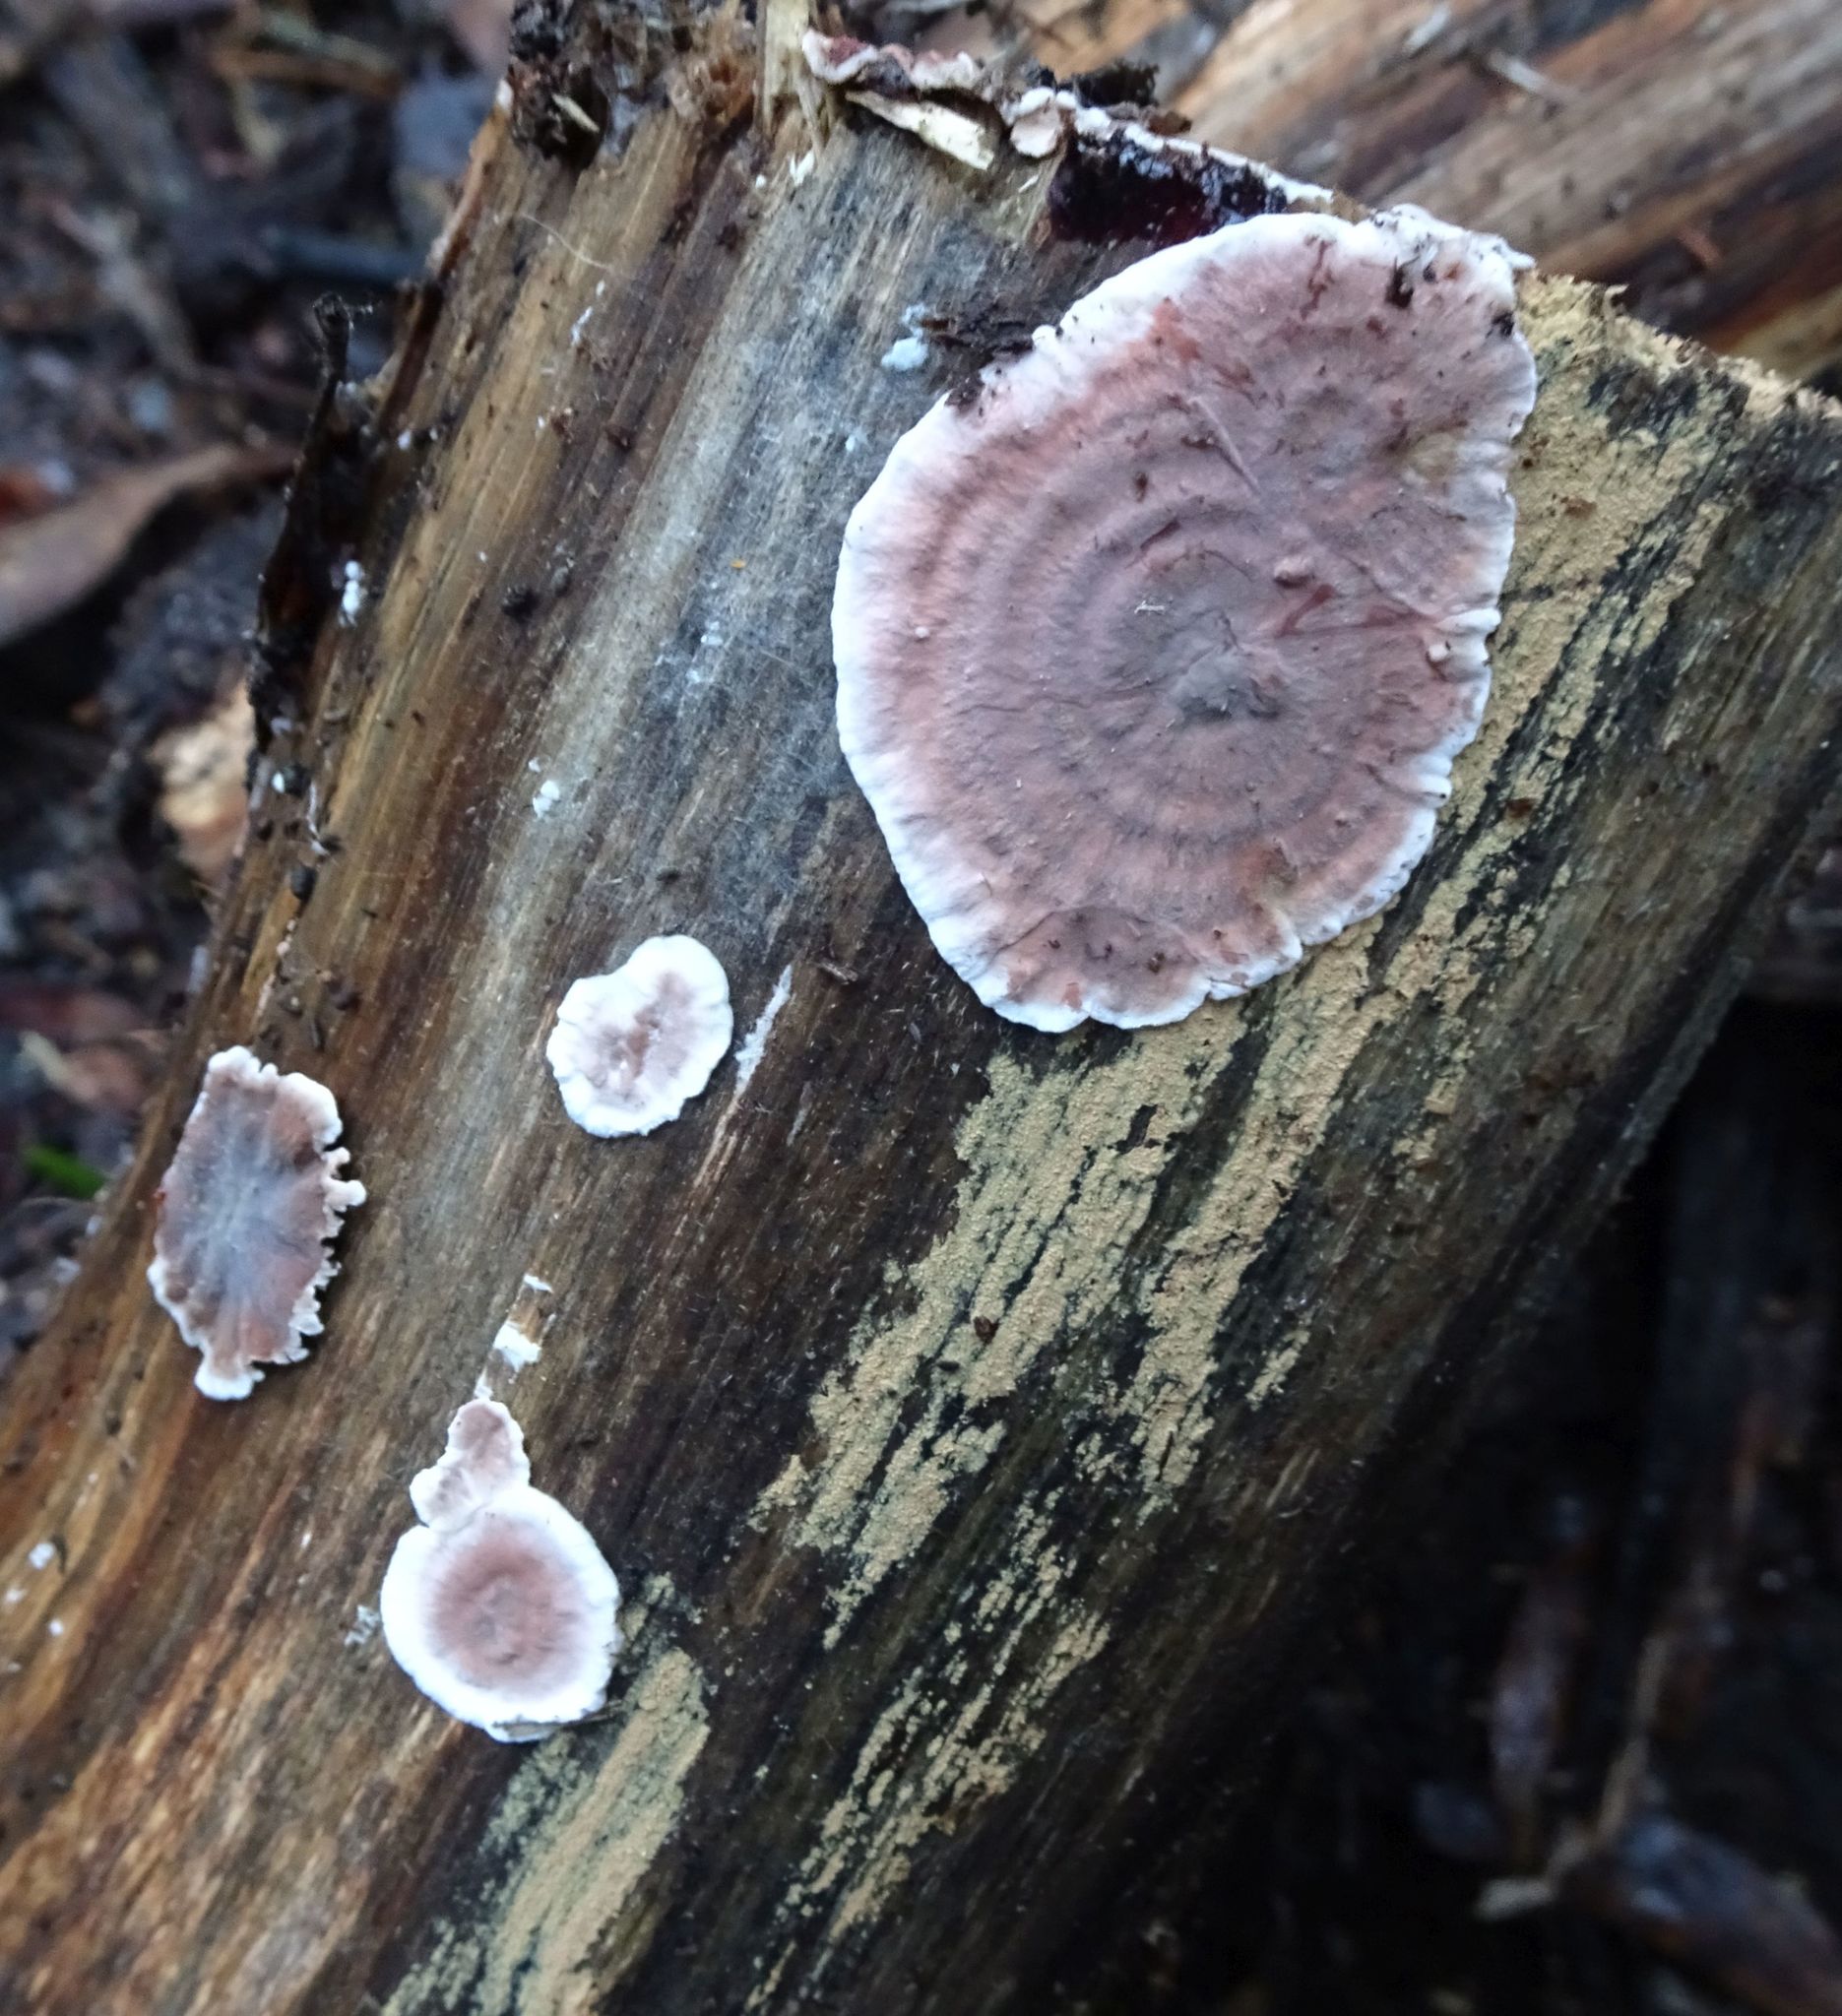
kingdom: Fungi
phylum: Basidiomycota
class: Agaricomycetes
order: Russulales
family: Stereaceae
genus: Xylobolus
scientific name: Xylobolus illudens
